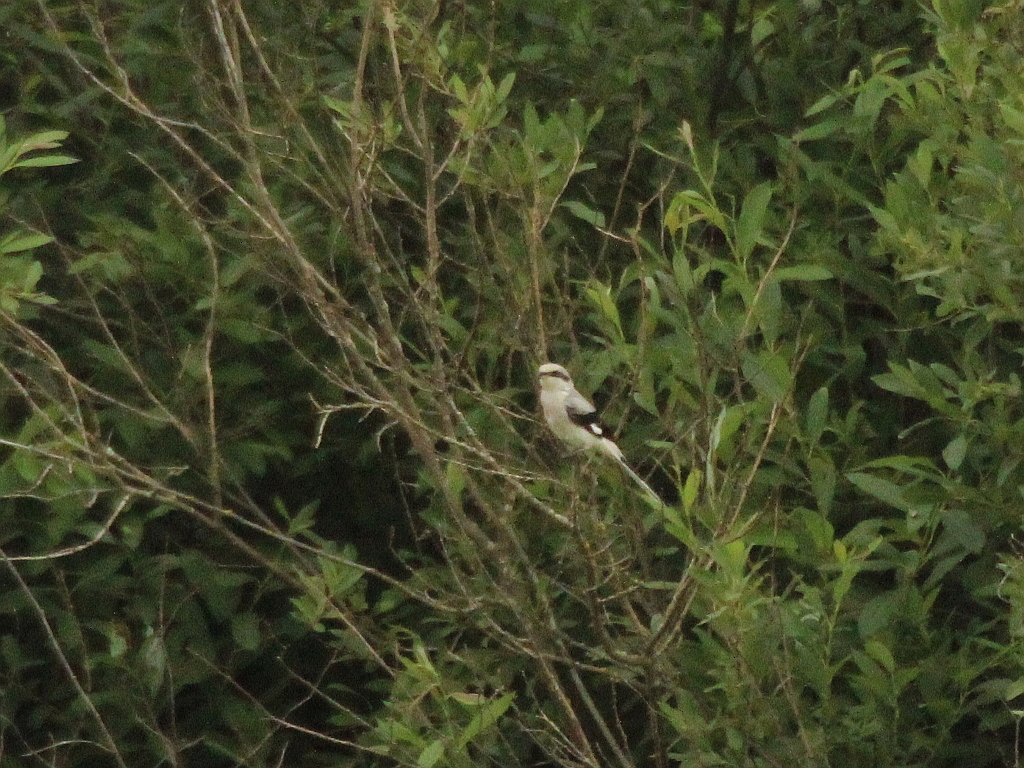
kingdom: Animalia
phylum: Chordata
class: Aves
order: Passeriformes
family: Laniidae
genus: Lanius
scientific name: Lanius excubitor
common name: Great grey shrike
